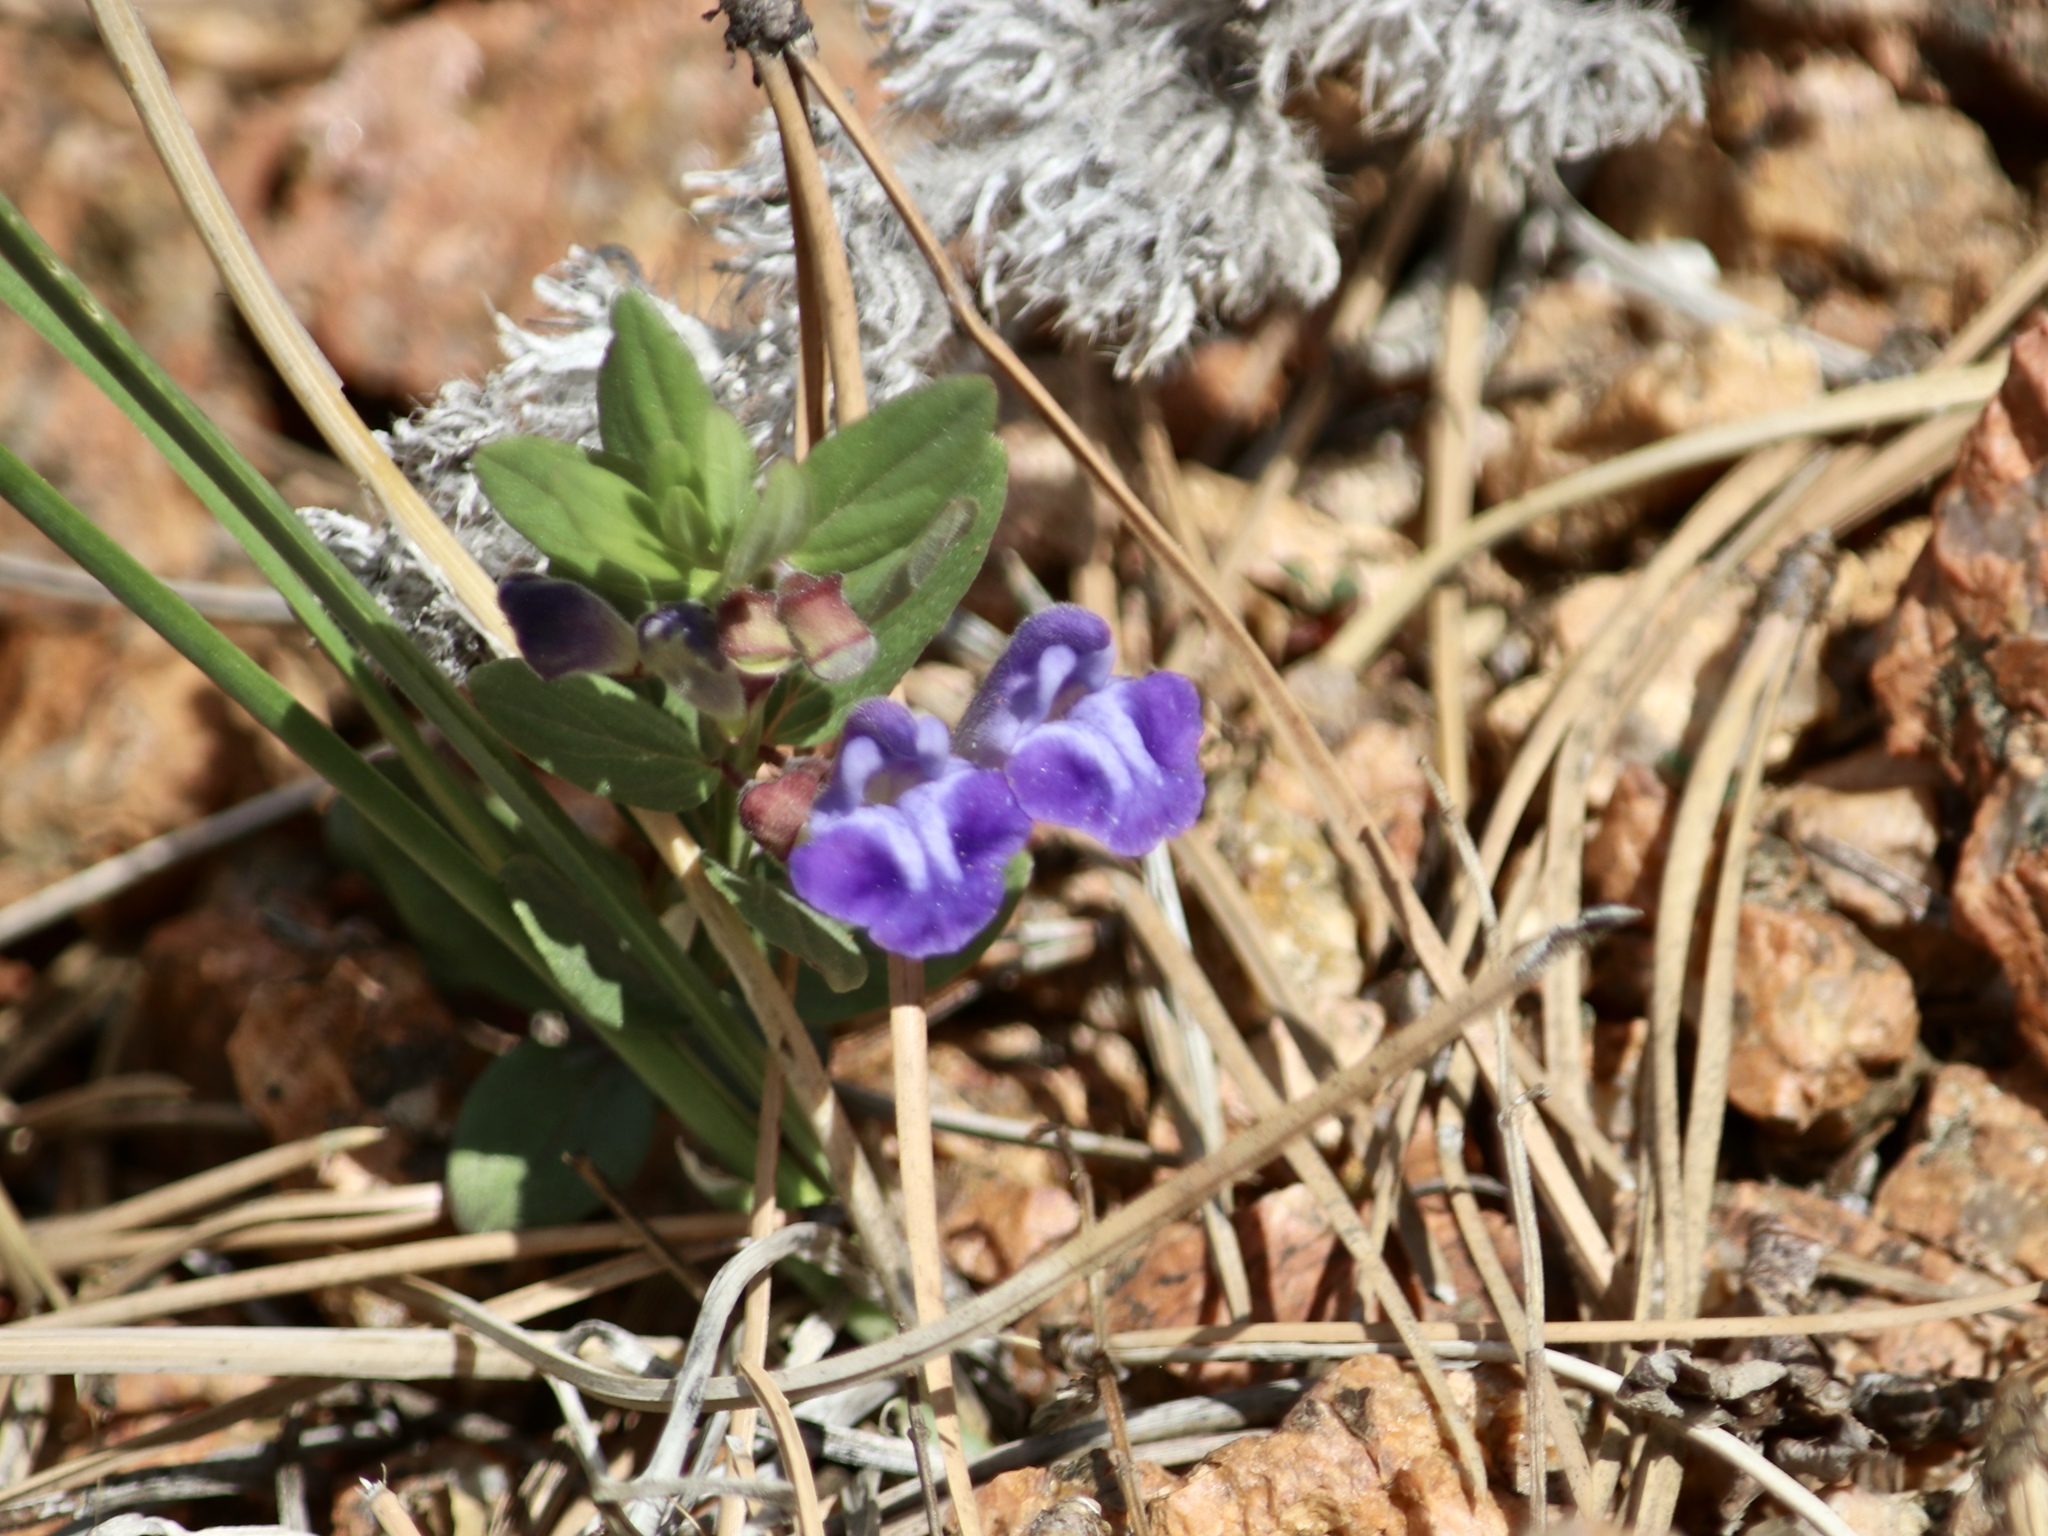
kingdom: Plantae
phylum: Tracheophyta
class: Magnoliopsida
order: Lamiales
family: Lamiaceae
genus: Scutellaria
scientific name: Scutellaria brittonii
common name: Britton's skullcap
